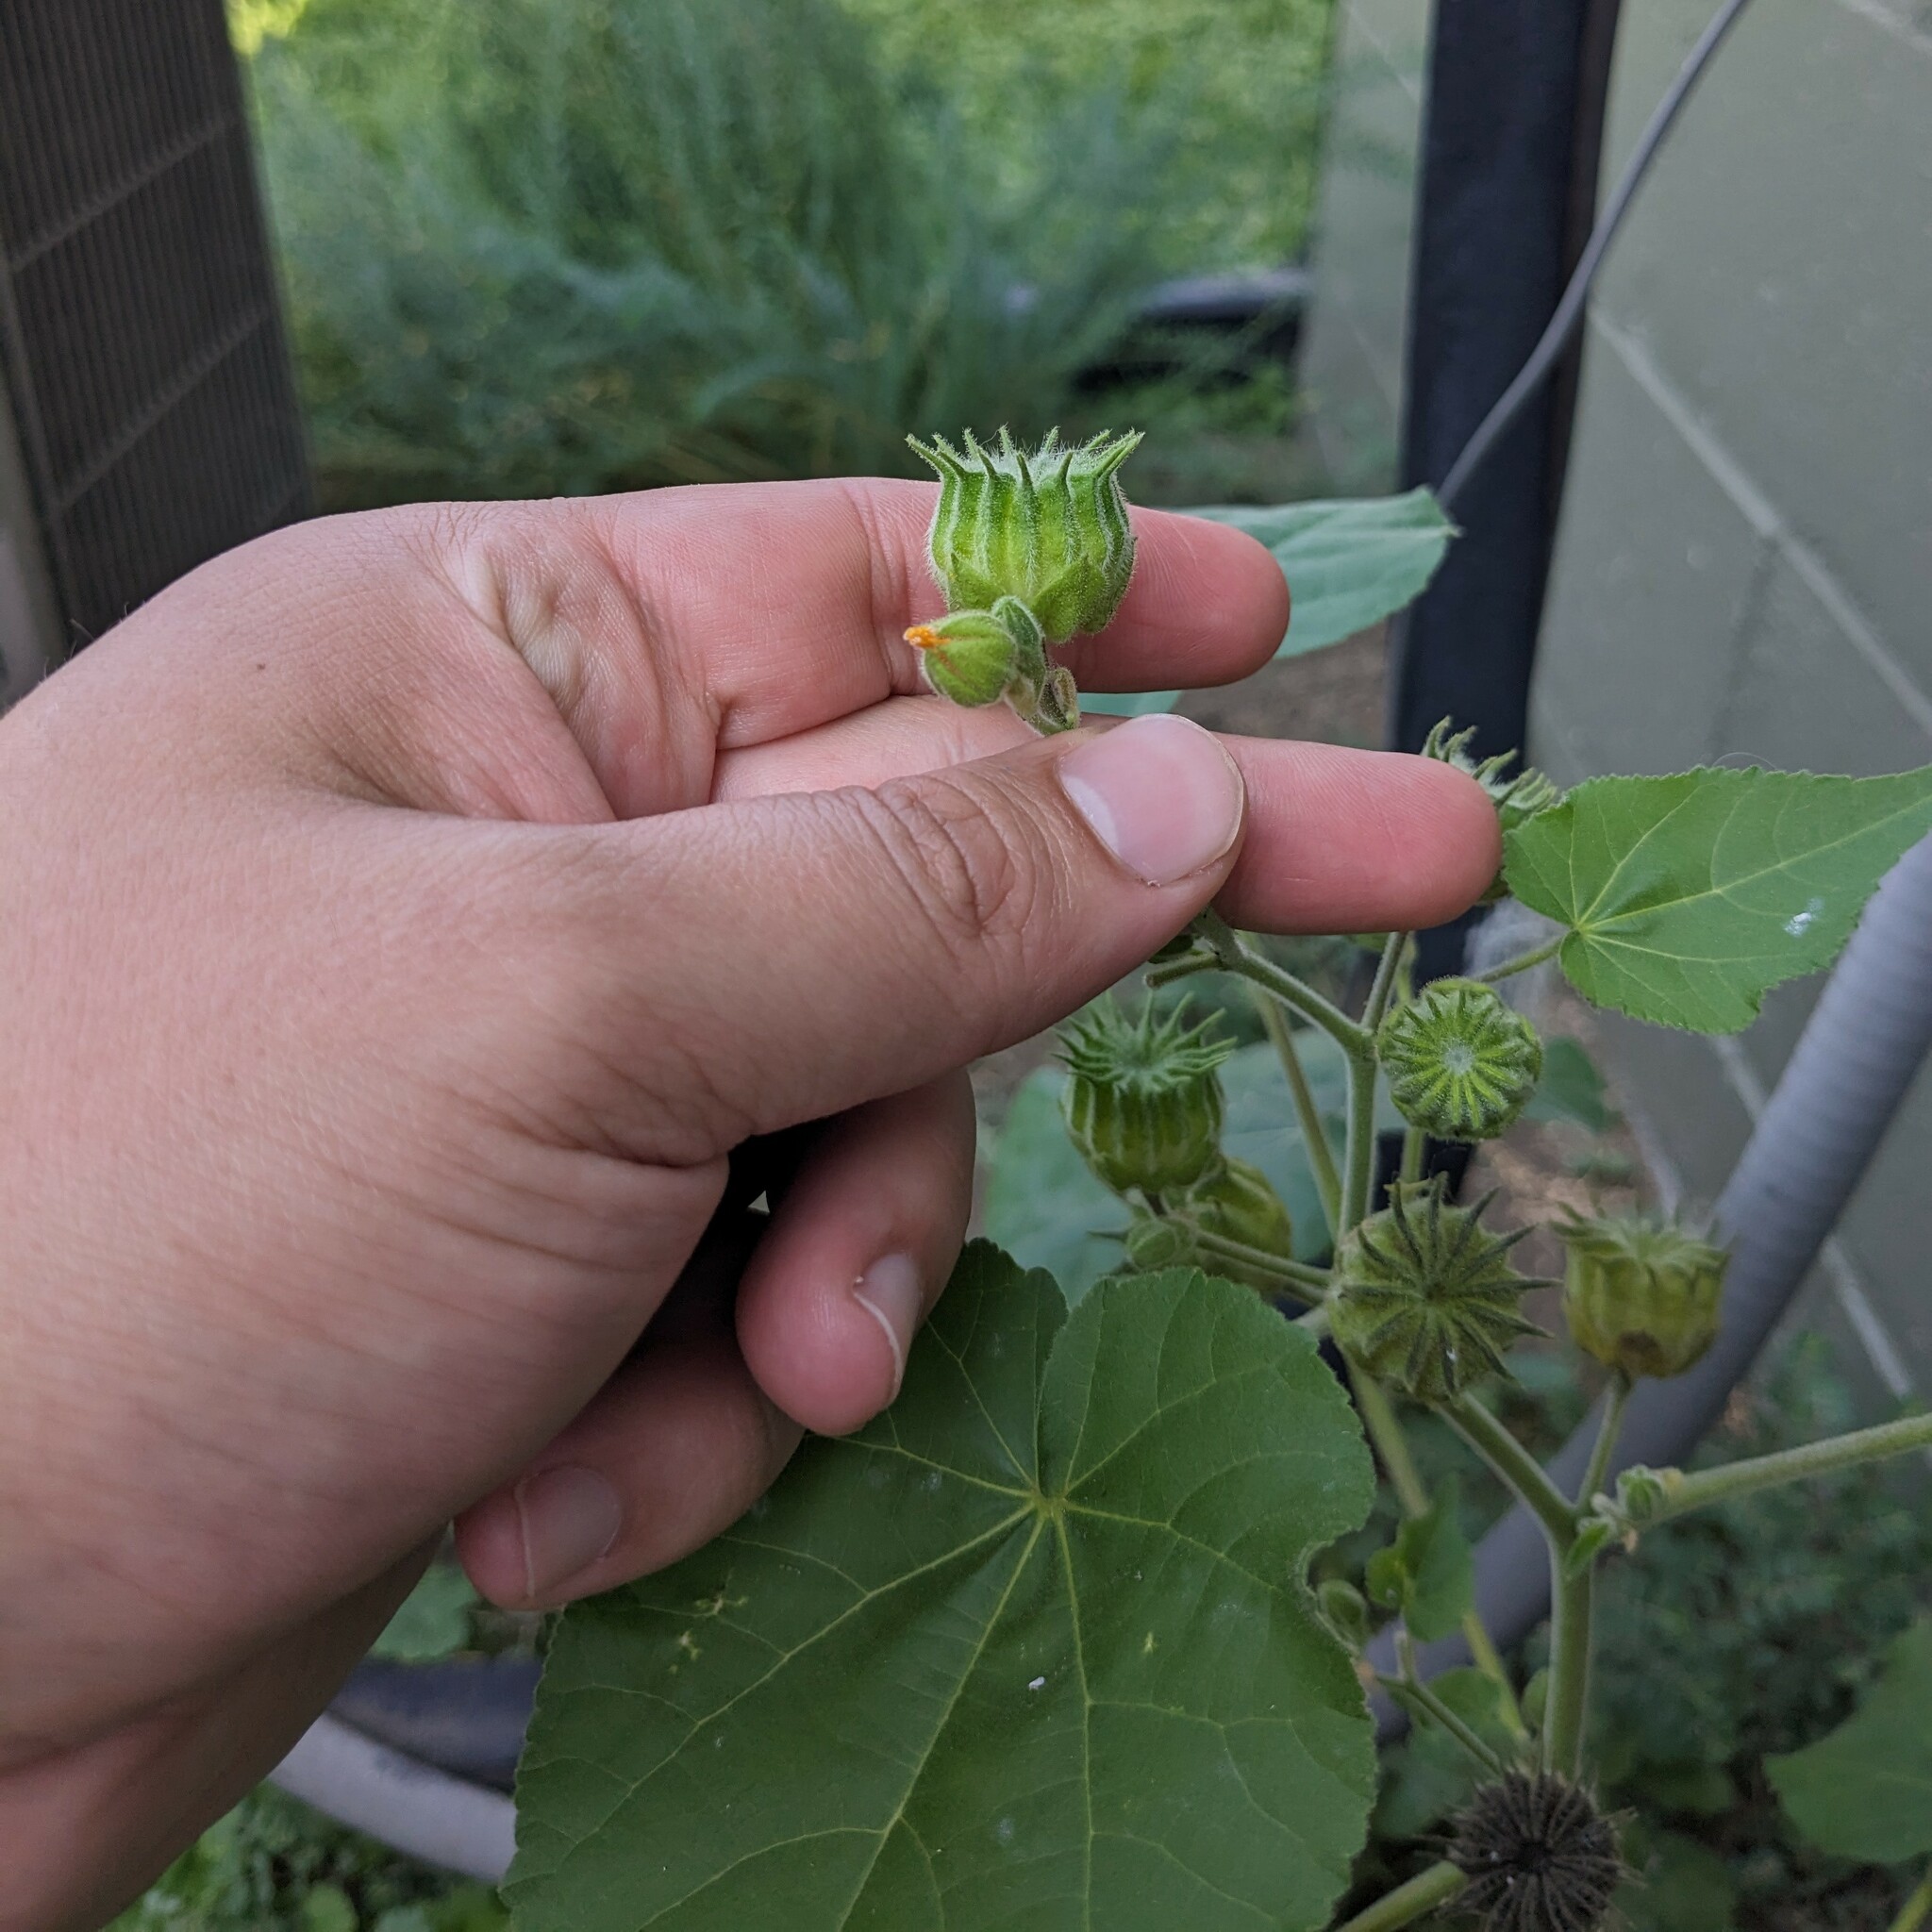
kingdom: Plantae
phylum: Tracheophyta
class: Magnoliopsida
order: Malvales
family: Malvaceae
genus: Abutilon
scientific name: Abutilon theophrasti
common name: Velvetleaf
